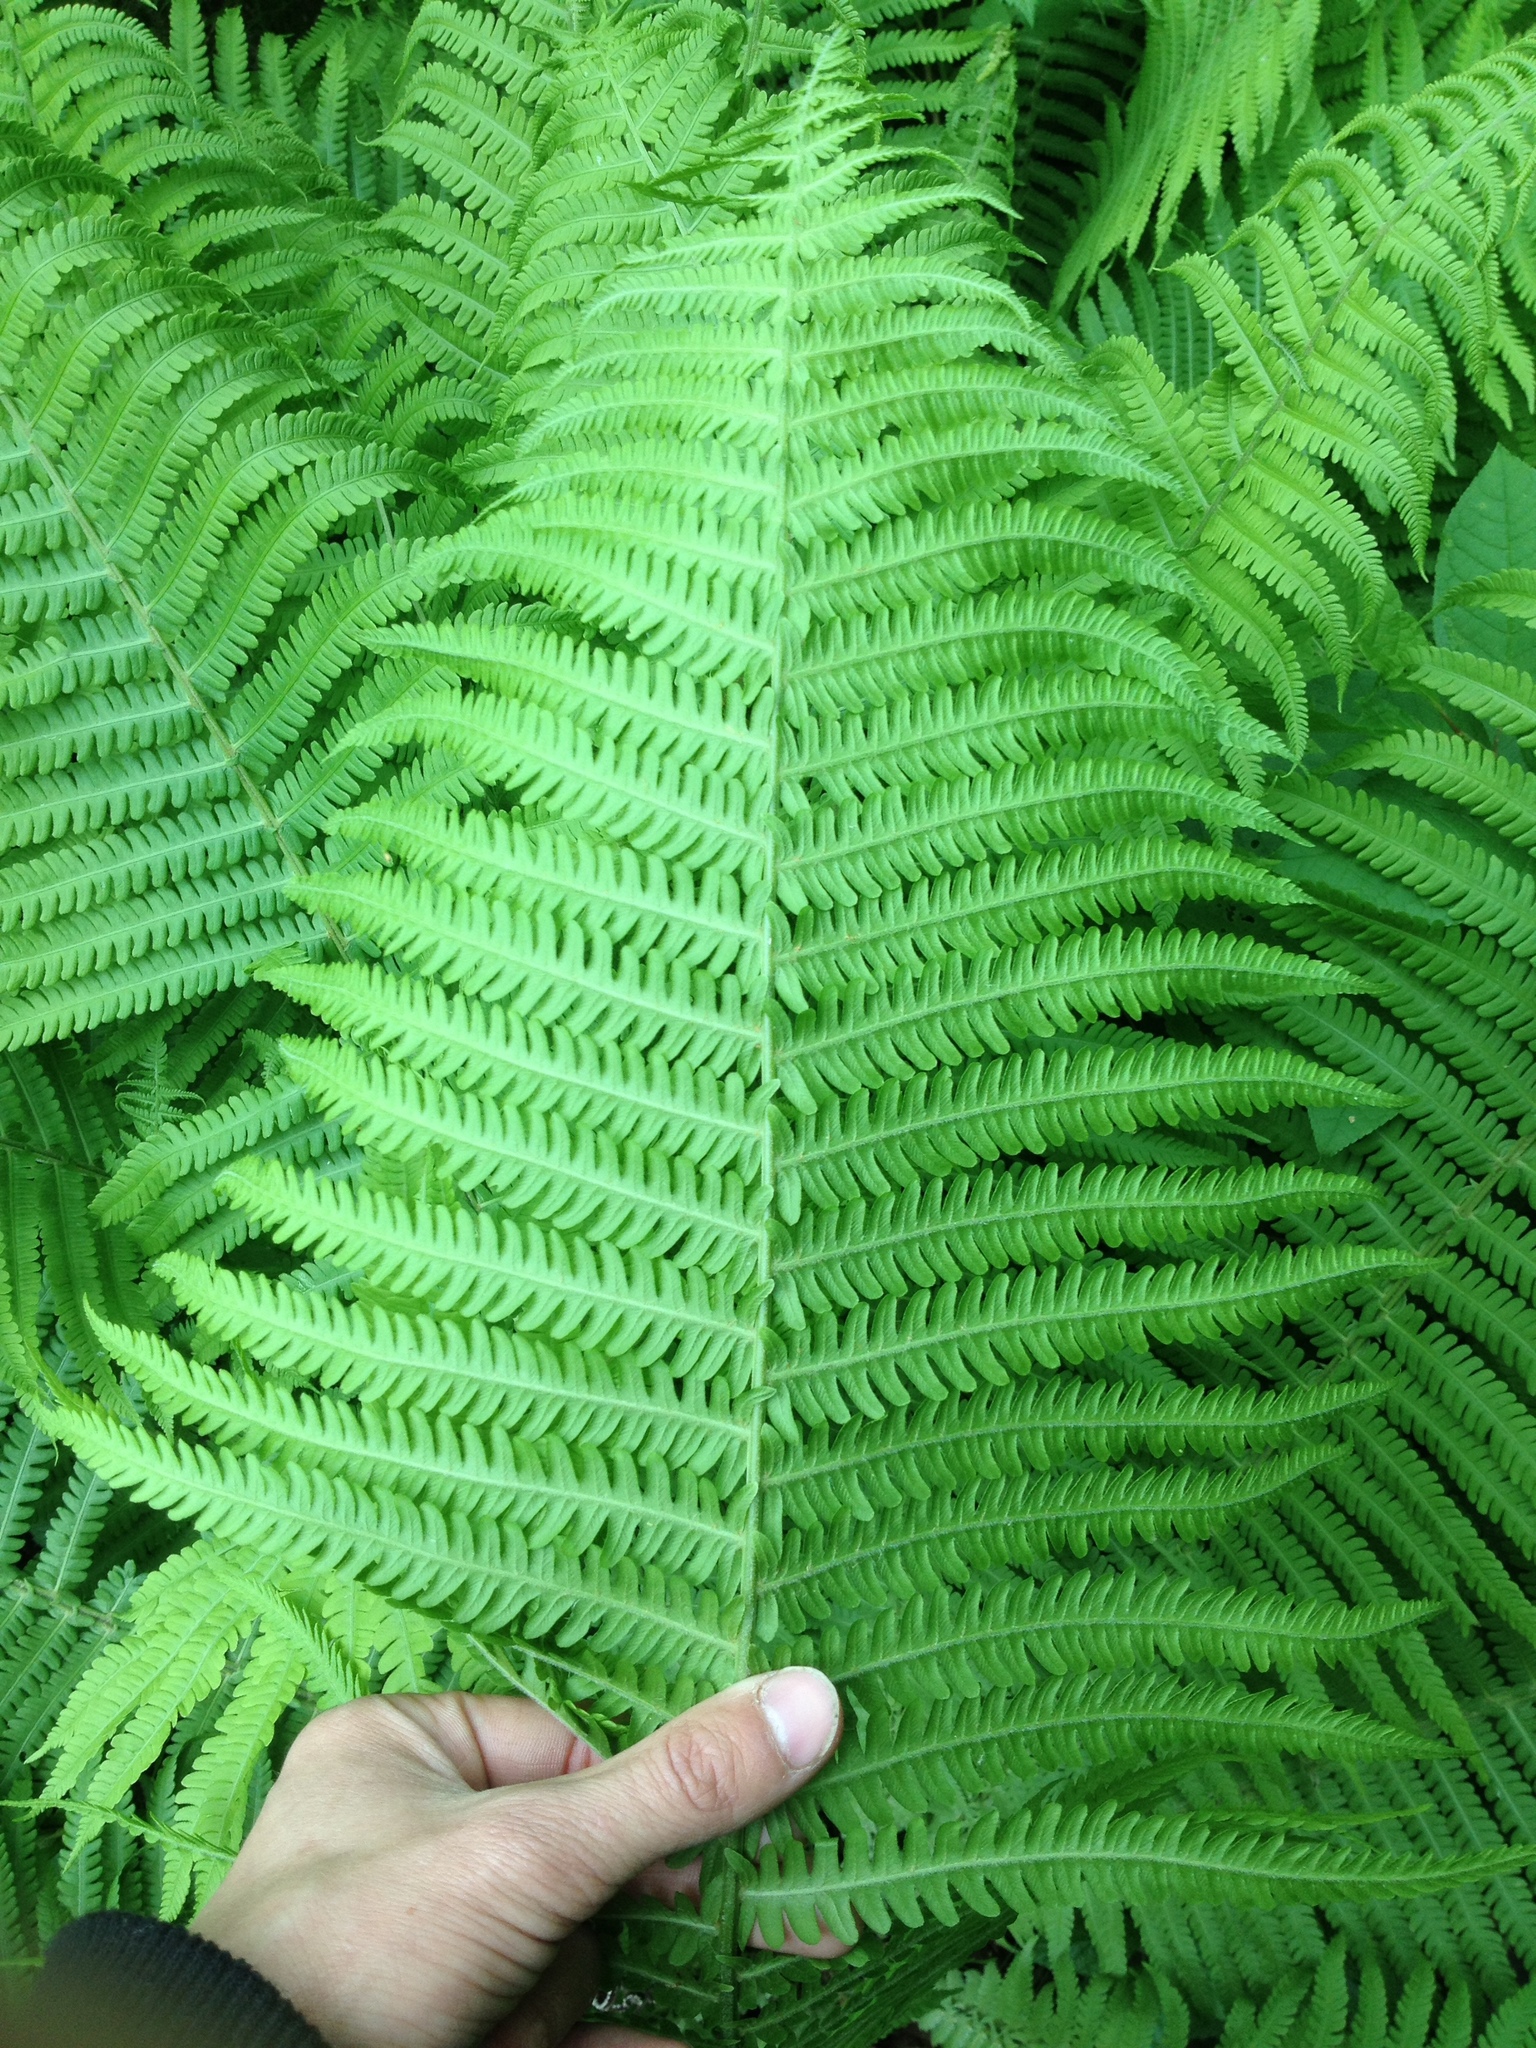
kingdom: Plantae
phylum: Tracheophyta
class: Polypodiopsida
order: Polypodiales
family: Onocleaceae
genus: Matteuccia
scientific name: Matteuccia struthiopteris
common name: Ostrich fern
